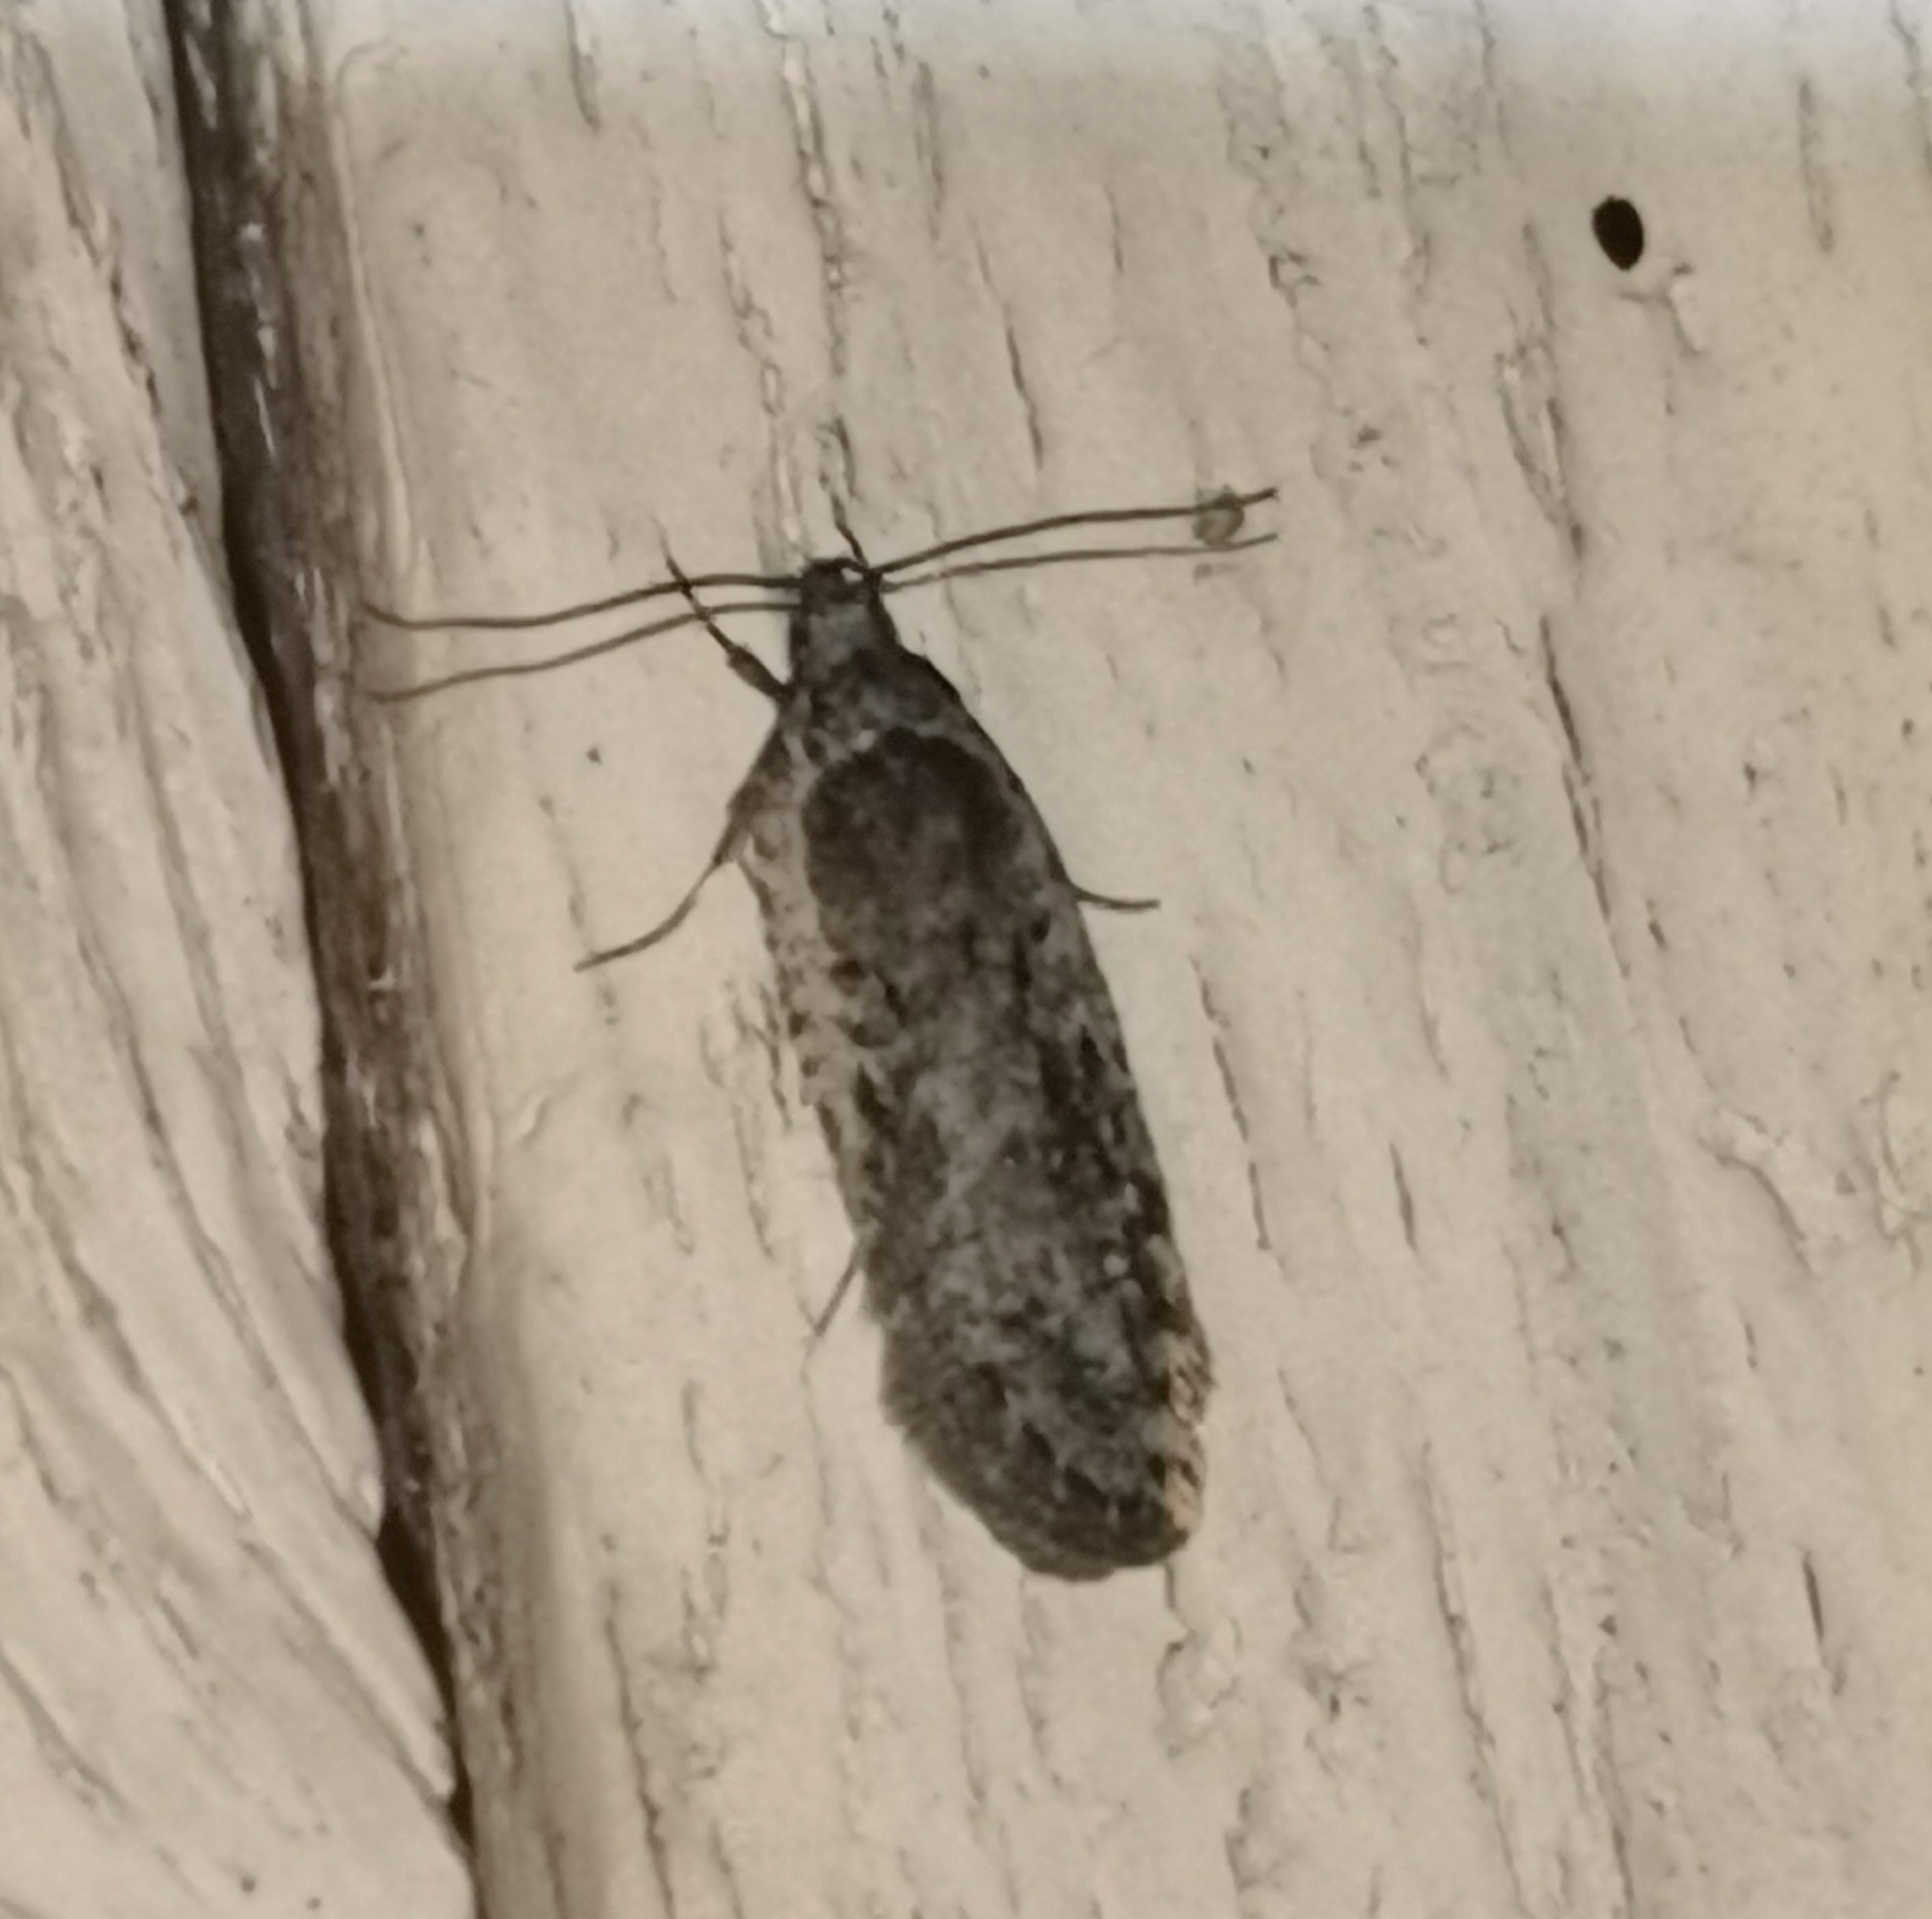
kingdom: Animalia
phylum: Arthropoda
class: Insecta
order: Lepidoptera
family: Depressariidae
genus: Exaeretia
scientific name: Exaeretia ciniflonella
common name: Scotch flat-body
